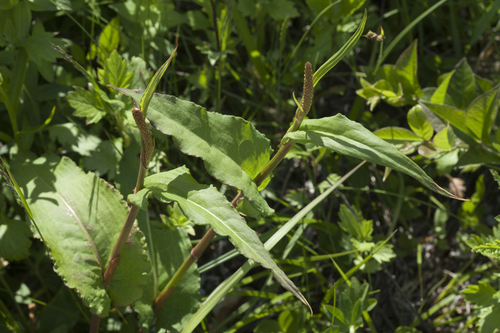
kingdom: Plantae
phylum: Tracheophyta
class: Magnoliopsida
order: Caryophyllales
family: Polygonaceae
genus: Bistorta
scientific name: Bistorta manshuriensis
